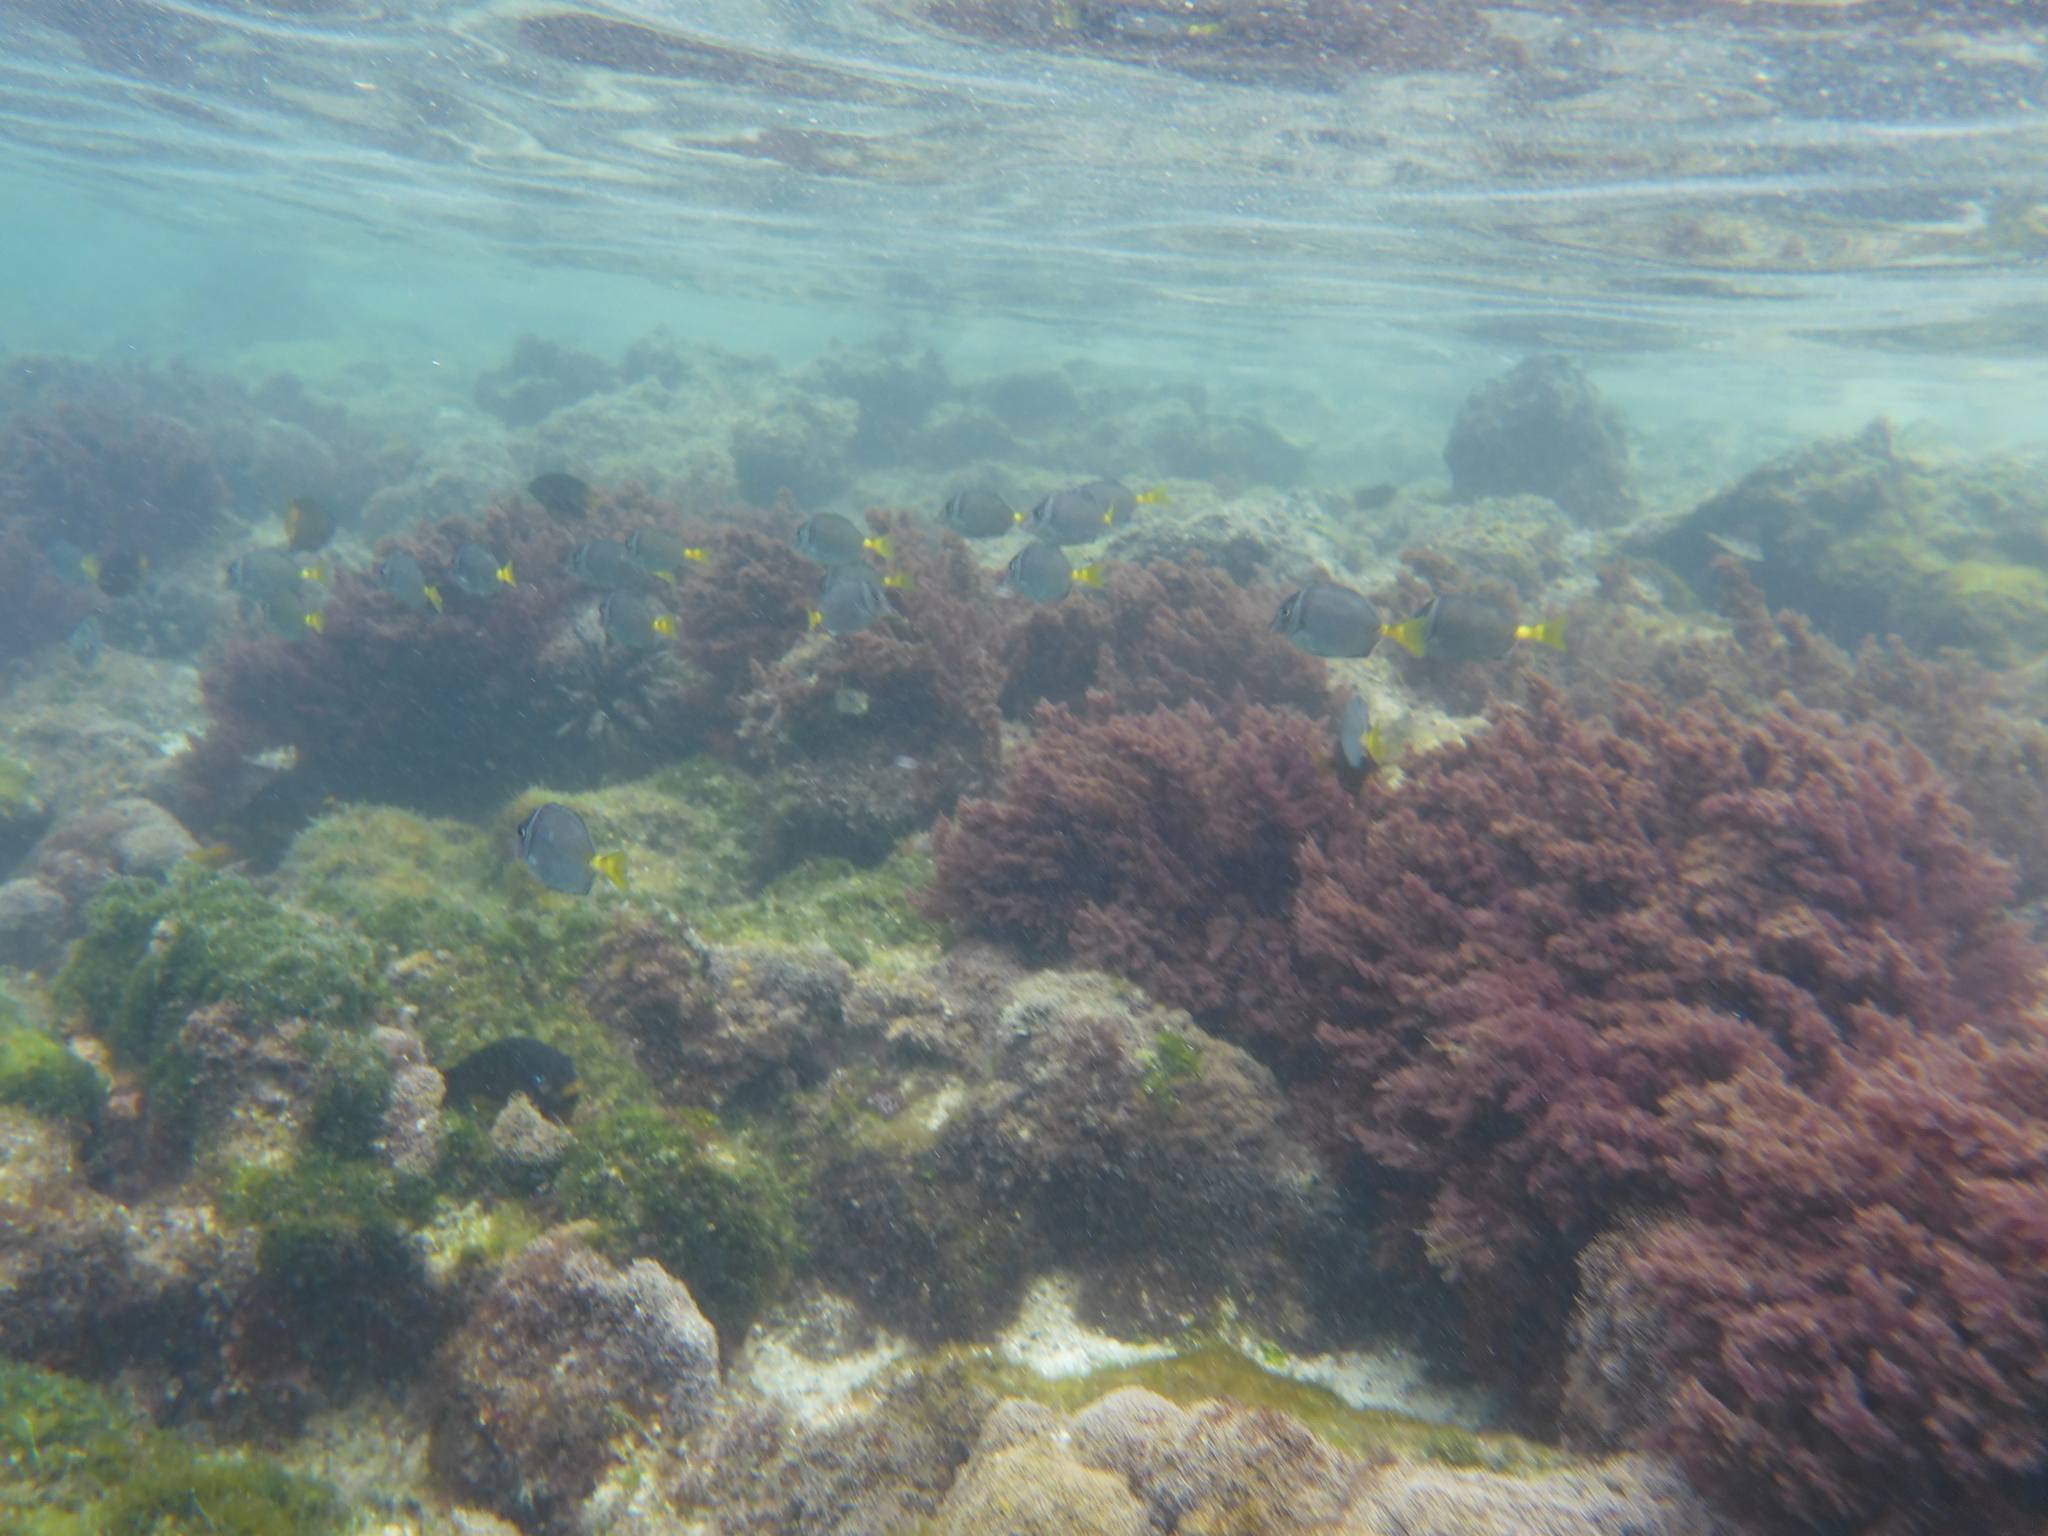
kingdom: Animalia
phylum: Chordata
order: Perciformes
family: Acanthuridae
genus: Prionurus
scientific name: Prionurus laticlavius
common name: Razor surgeonfish
